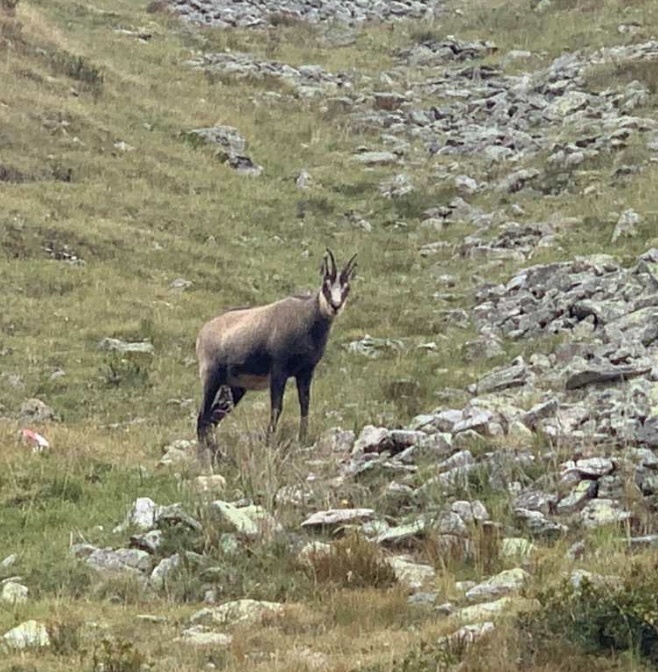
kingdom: Animalia
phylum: Chordata
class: Mammalia
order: Artiodactyla
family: Bovidae
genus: Rupicapra
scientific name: Rupicapra rupicapra
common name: Chamois
